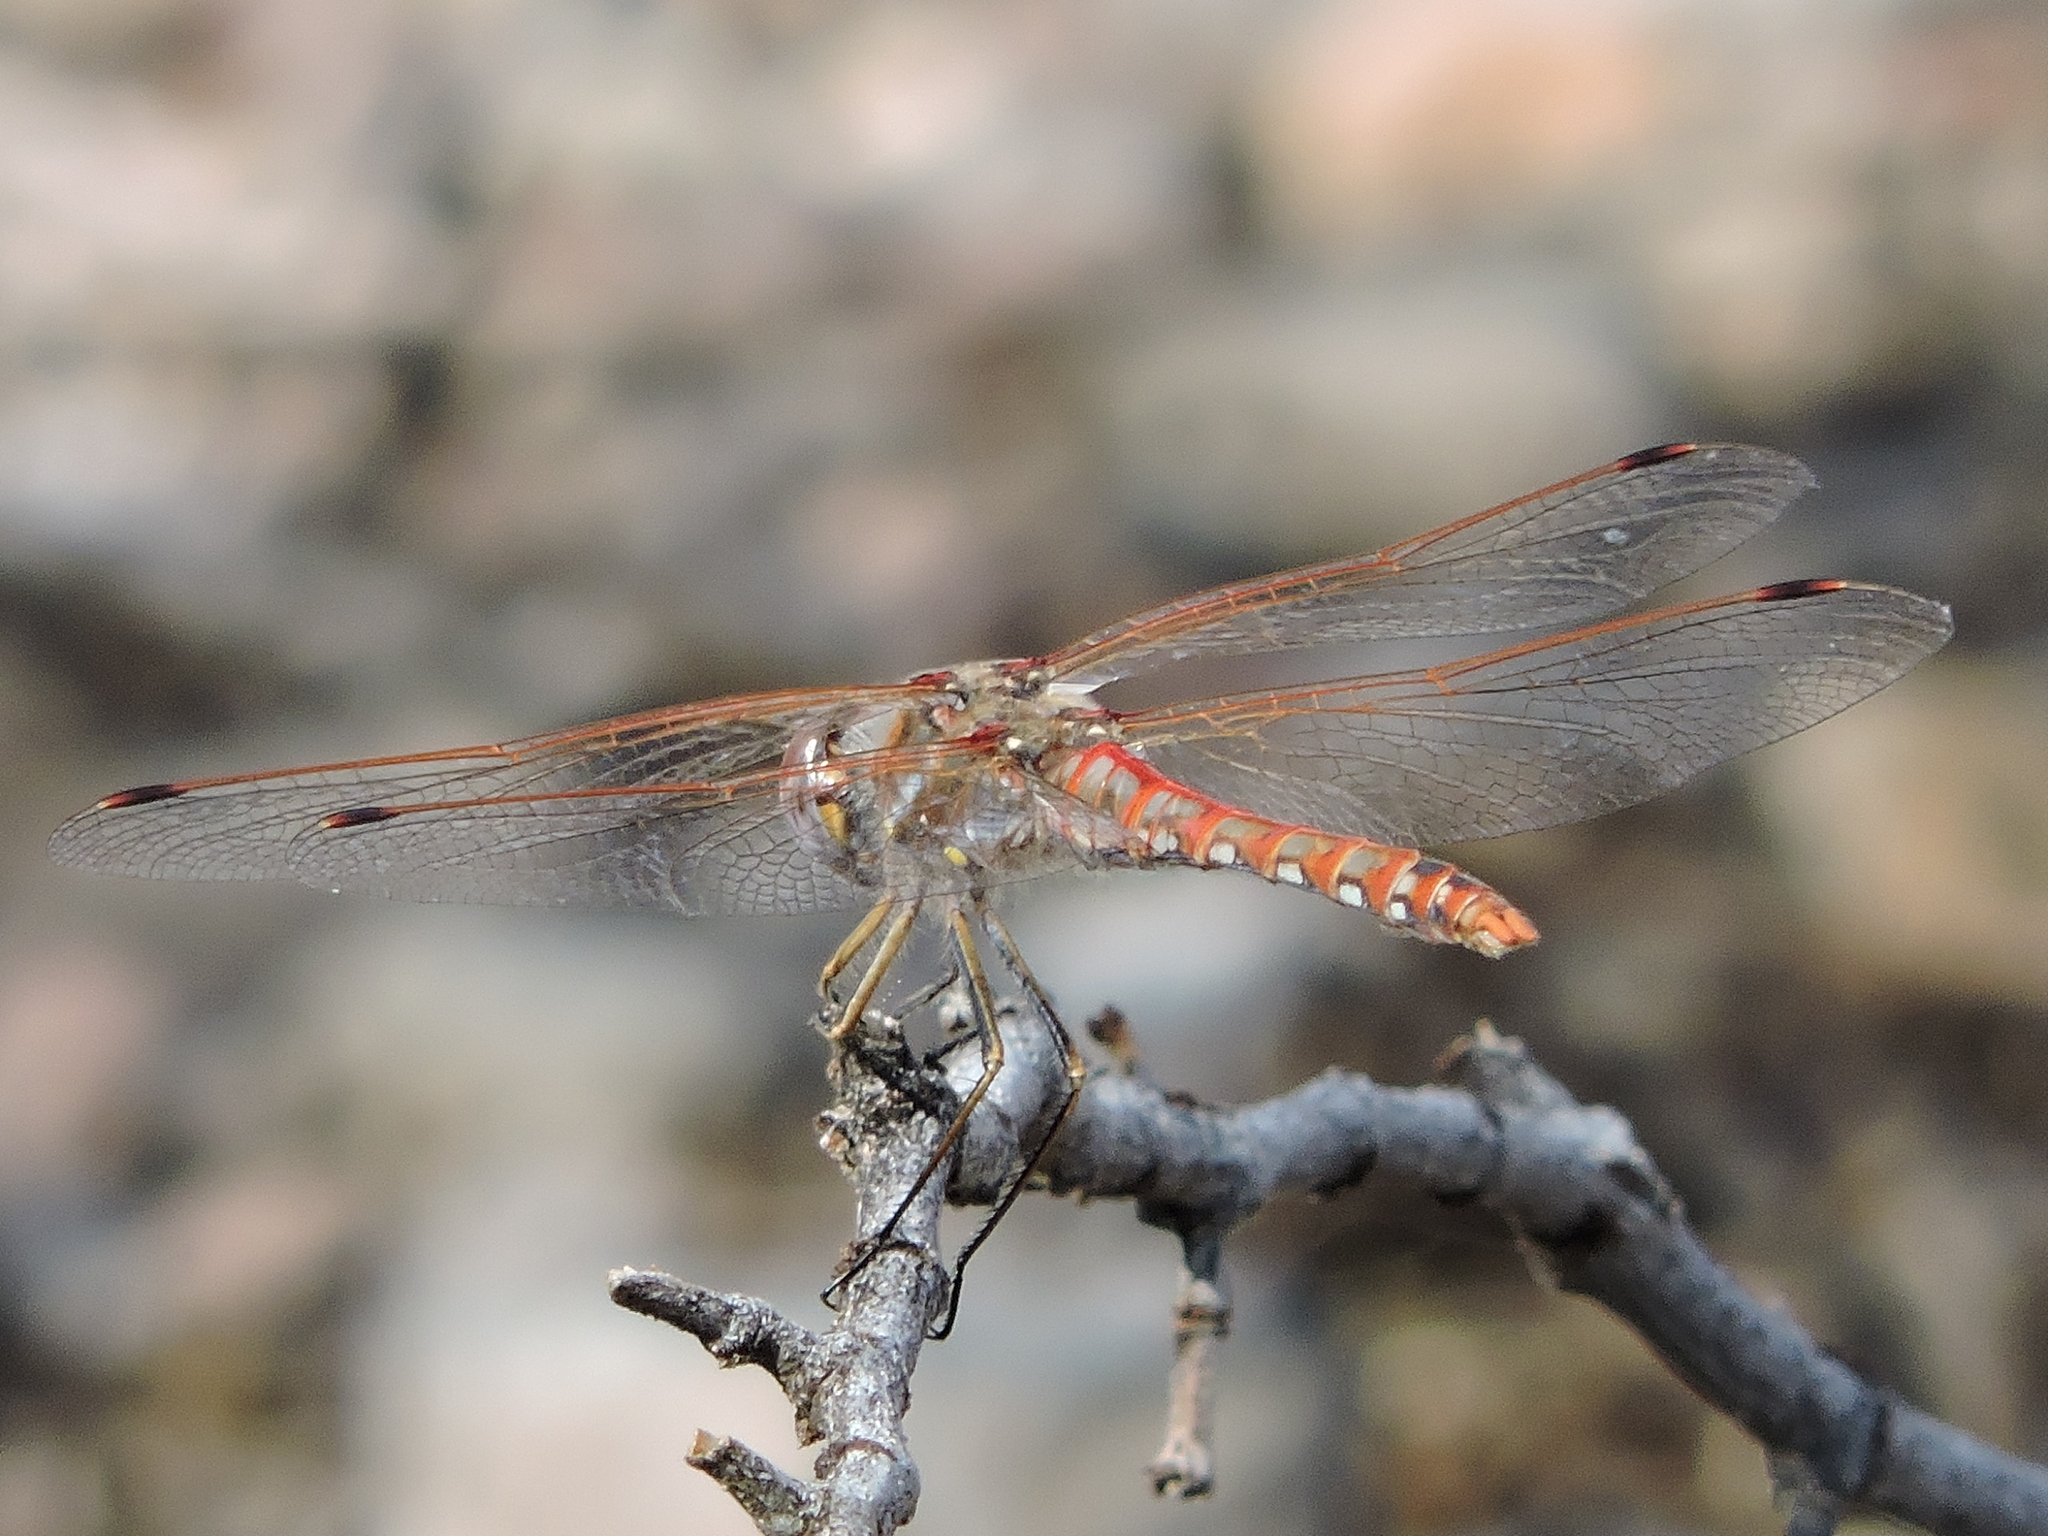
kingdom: Animalia
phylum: Arthropoda
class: Insecta
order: Odonata
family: Libellulidae
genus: Sympetrum
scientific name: Sympetrum corruptum
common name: Variegated meadowhawk
